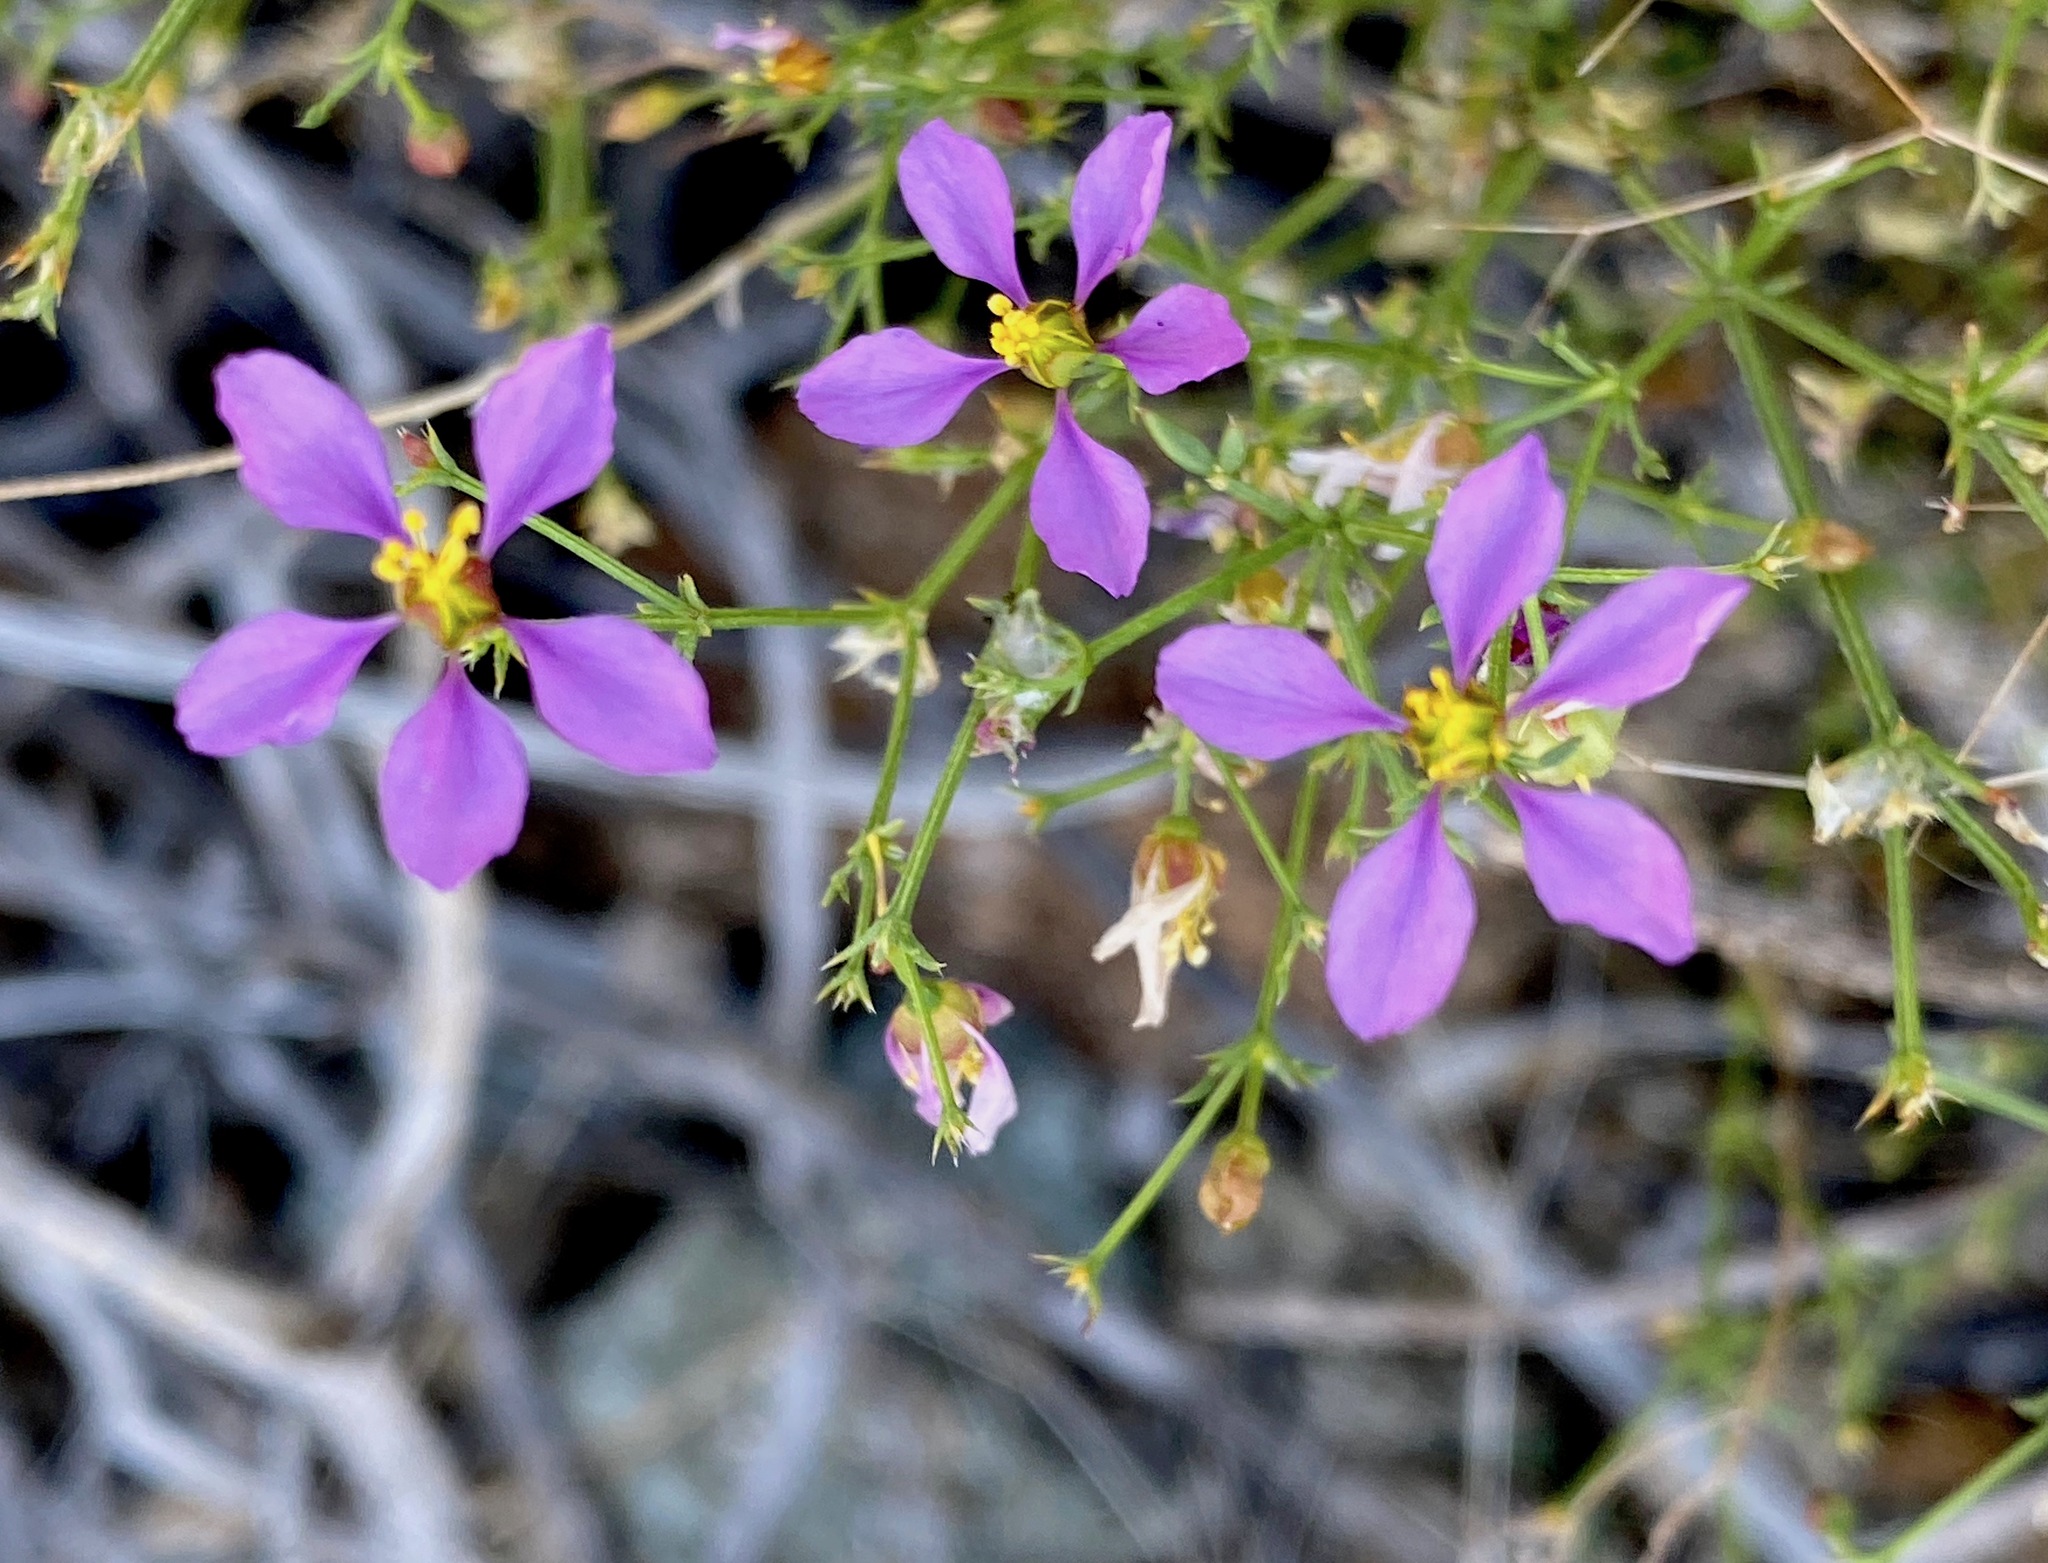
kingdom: Plantae
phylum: Tracheophyta
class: Magnoliopsida
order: Zygophyllales
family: Zygophyllaceae
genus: Fagonia
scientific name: Fagonia laevis
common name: California fagonbush
